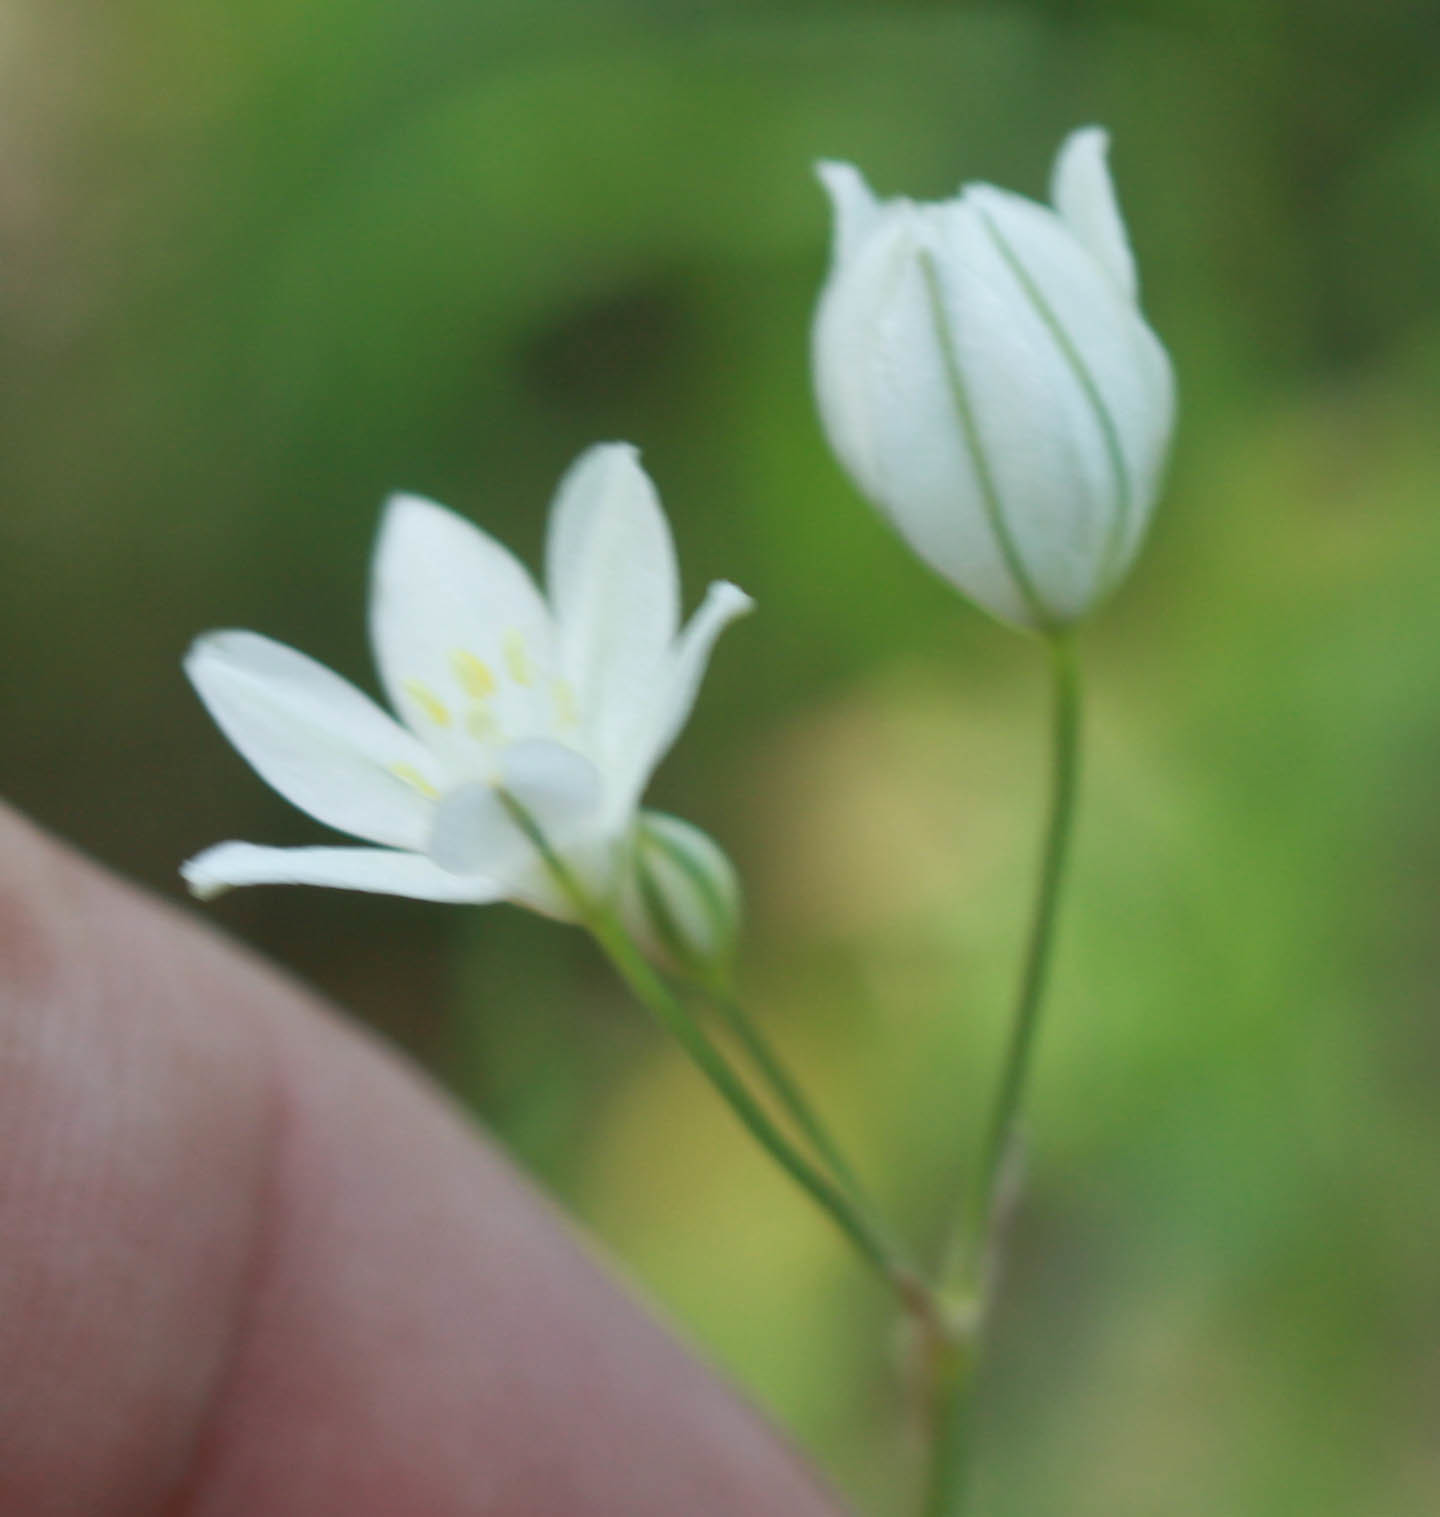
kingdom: Plantae
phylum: Tracheophyta
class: Liliopsida
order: Asparagales
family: Asparagaceae
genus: Triteleia
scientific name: Triteleia hyacinthina
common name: White brodiaea
